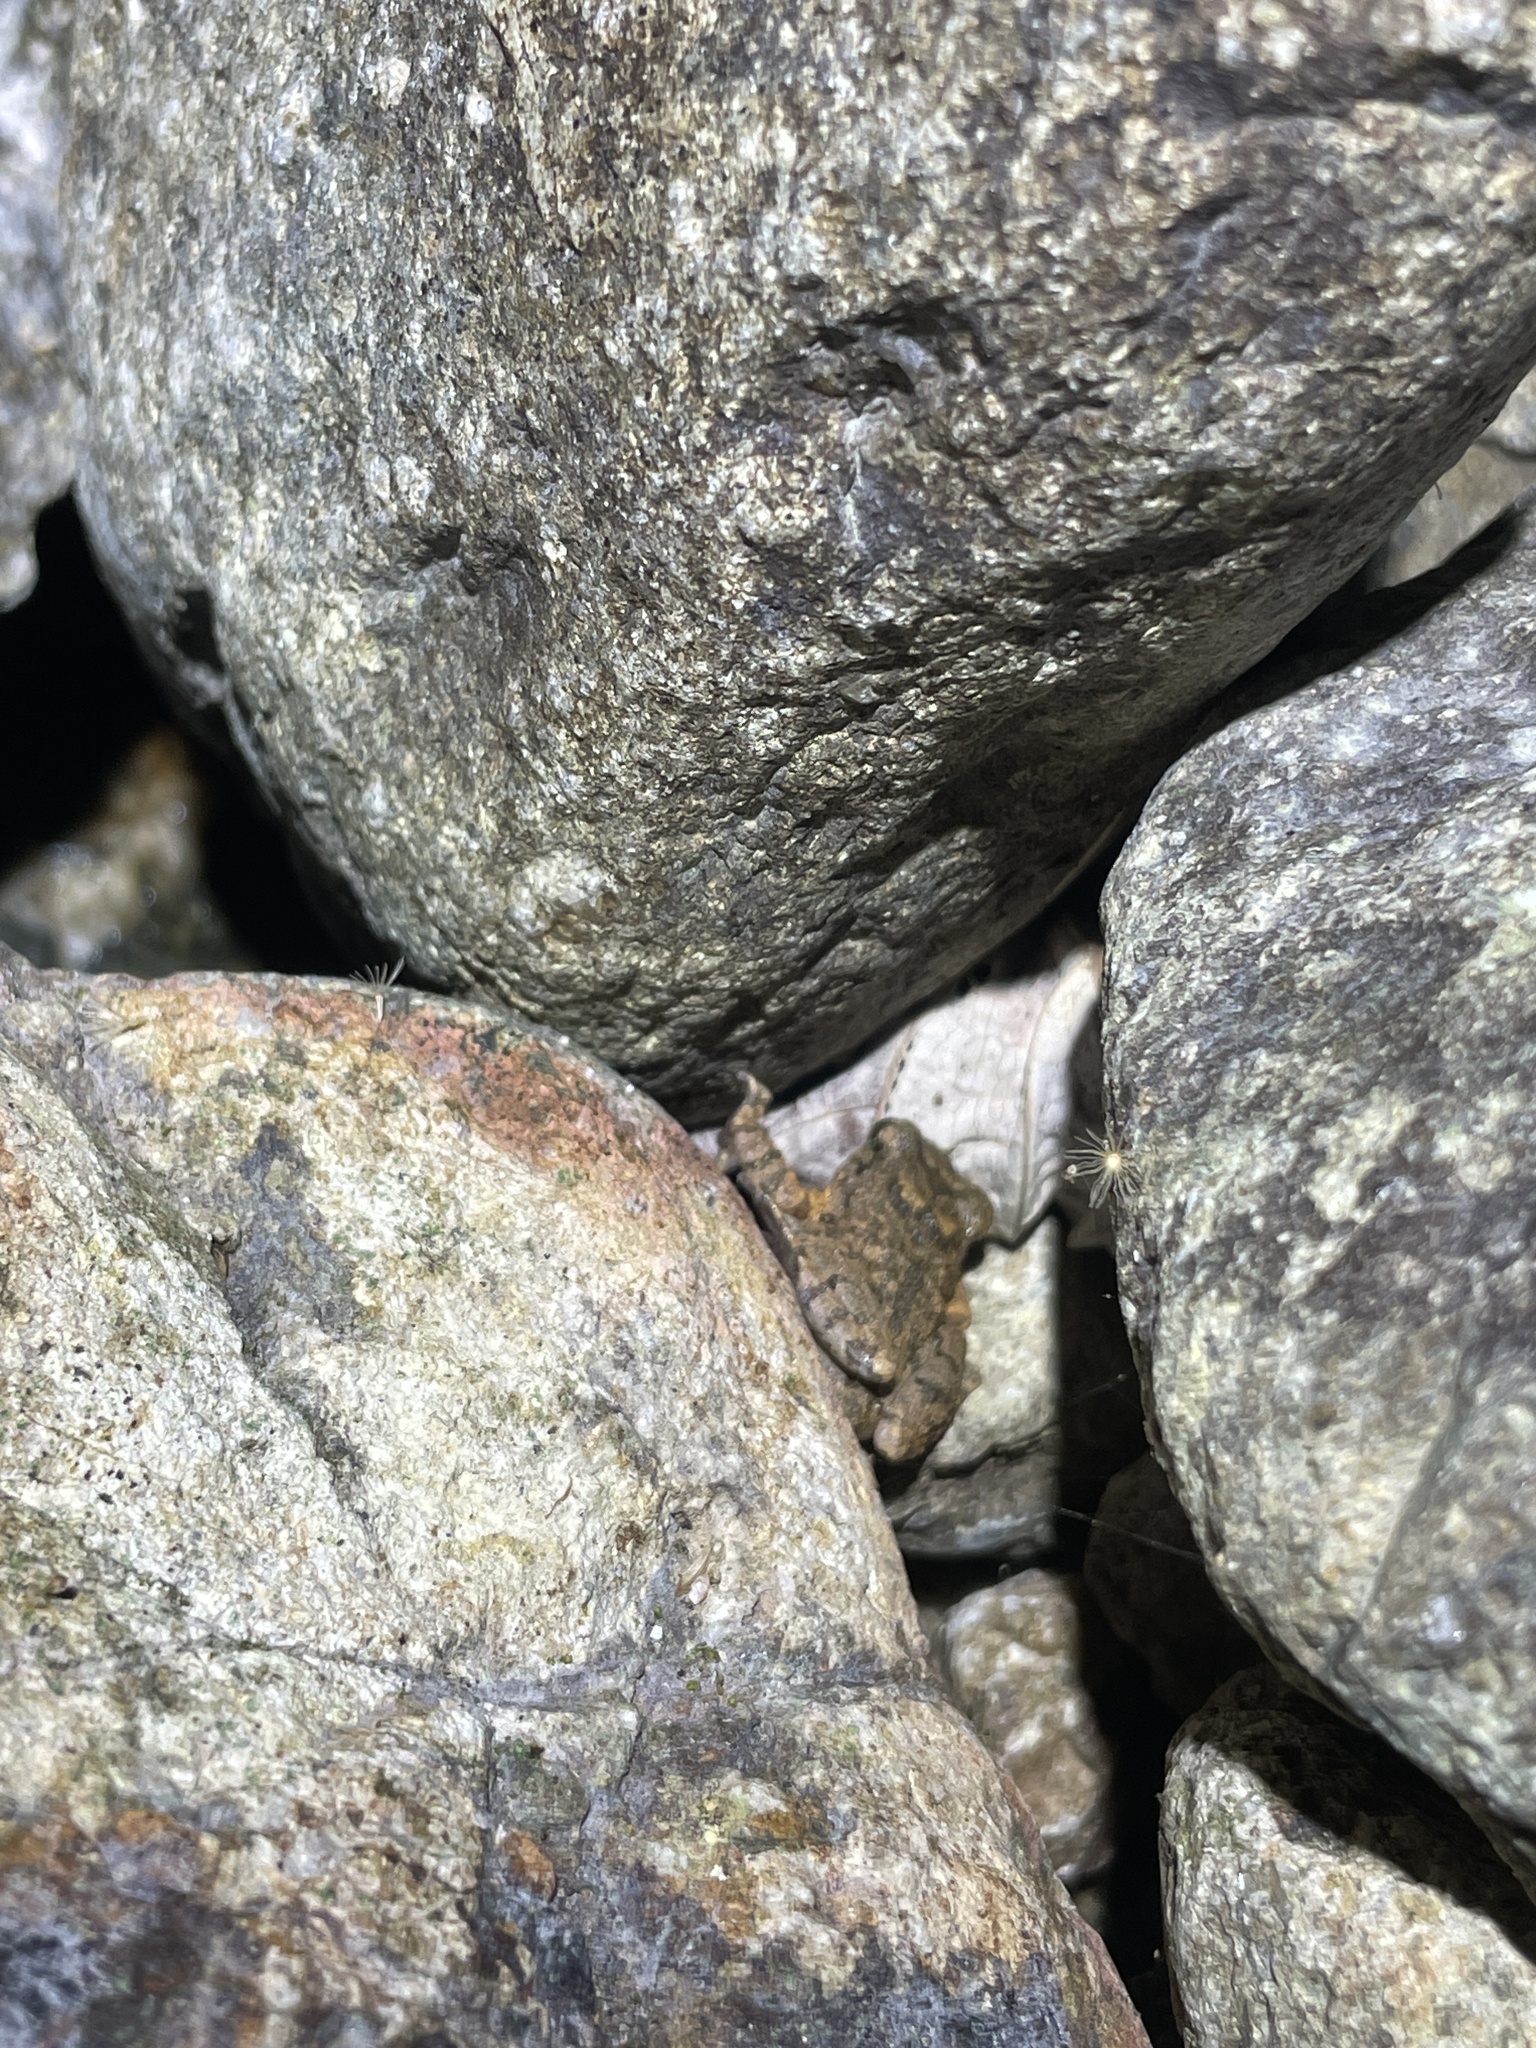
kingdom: Animalia
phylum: Chordata
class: Amphibia
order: Anura
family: Megophryidae
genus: Leptobrachella
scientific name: Leptobrachella laui
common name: Lau's leaf little toad
